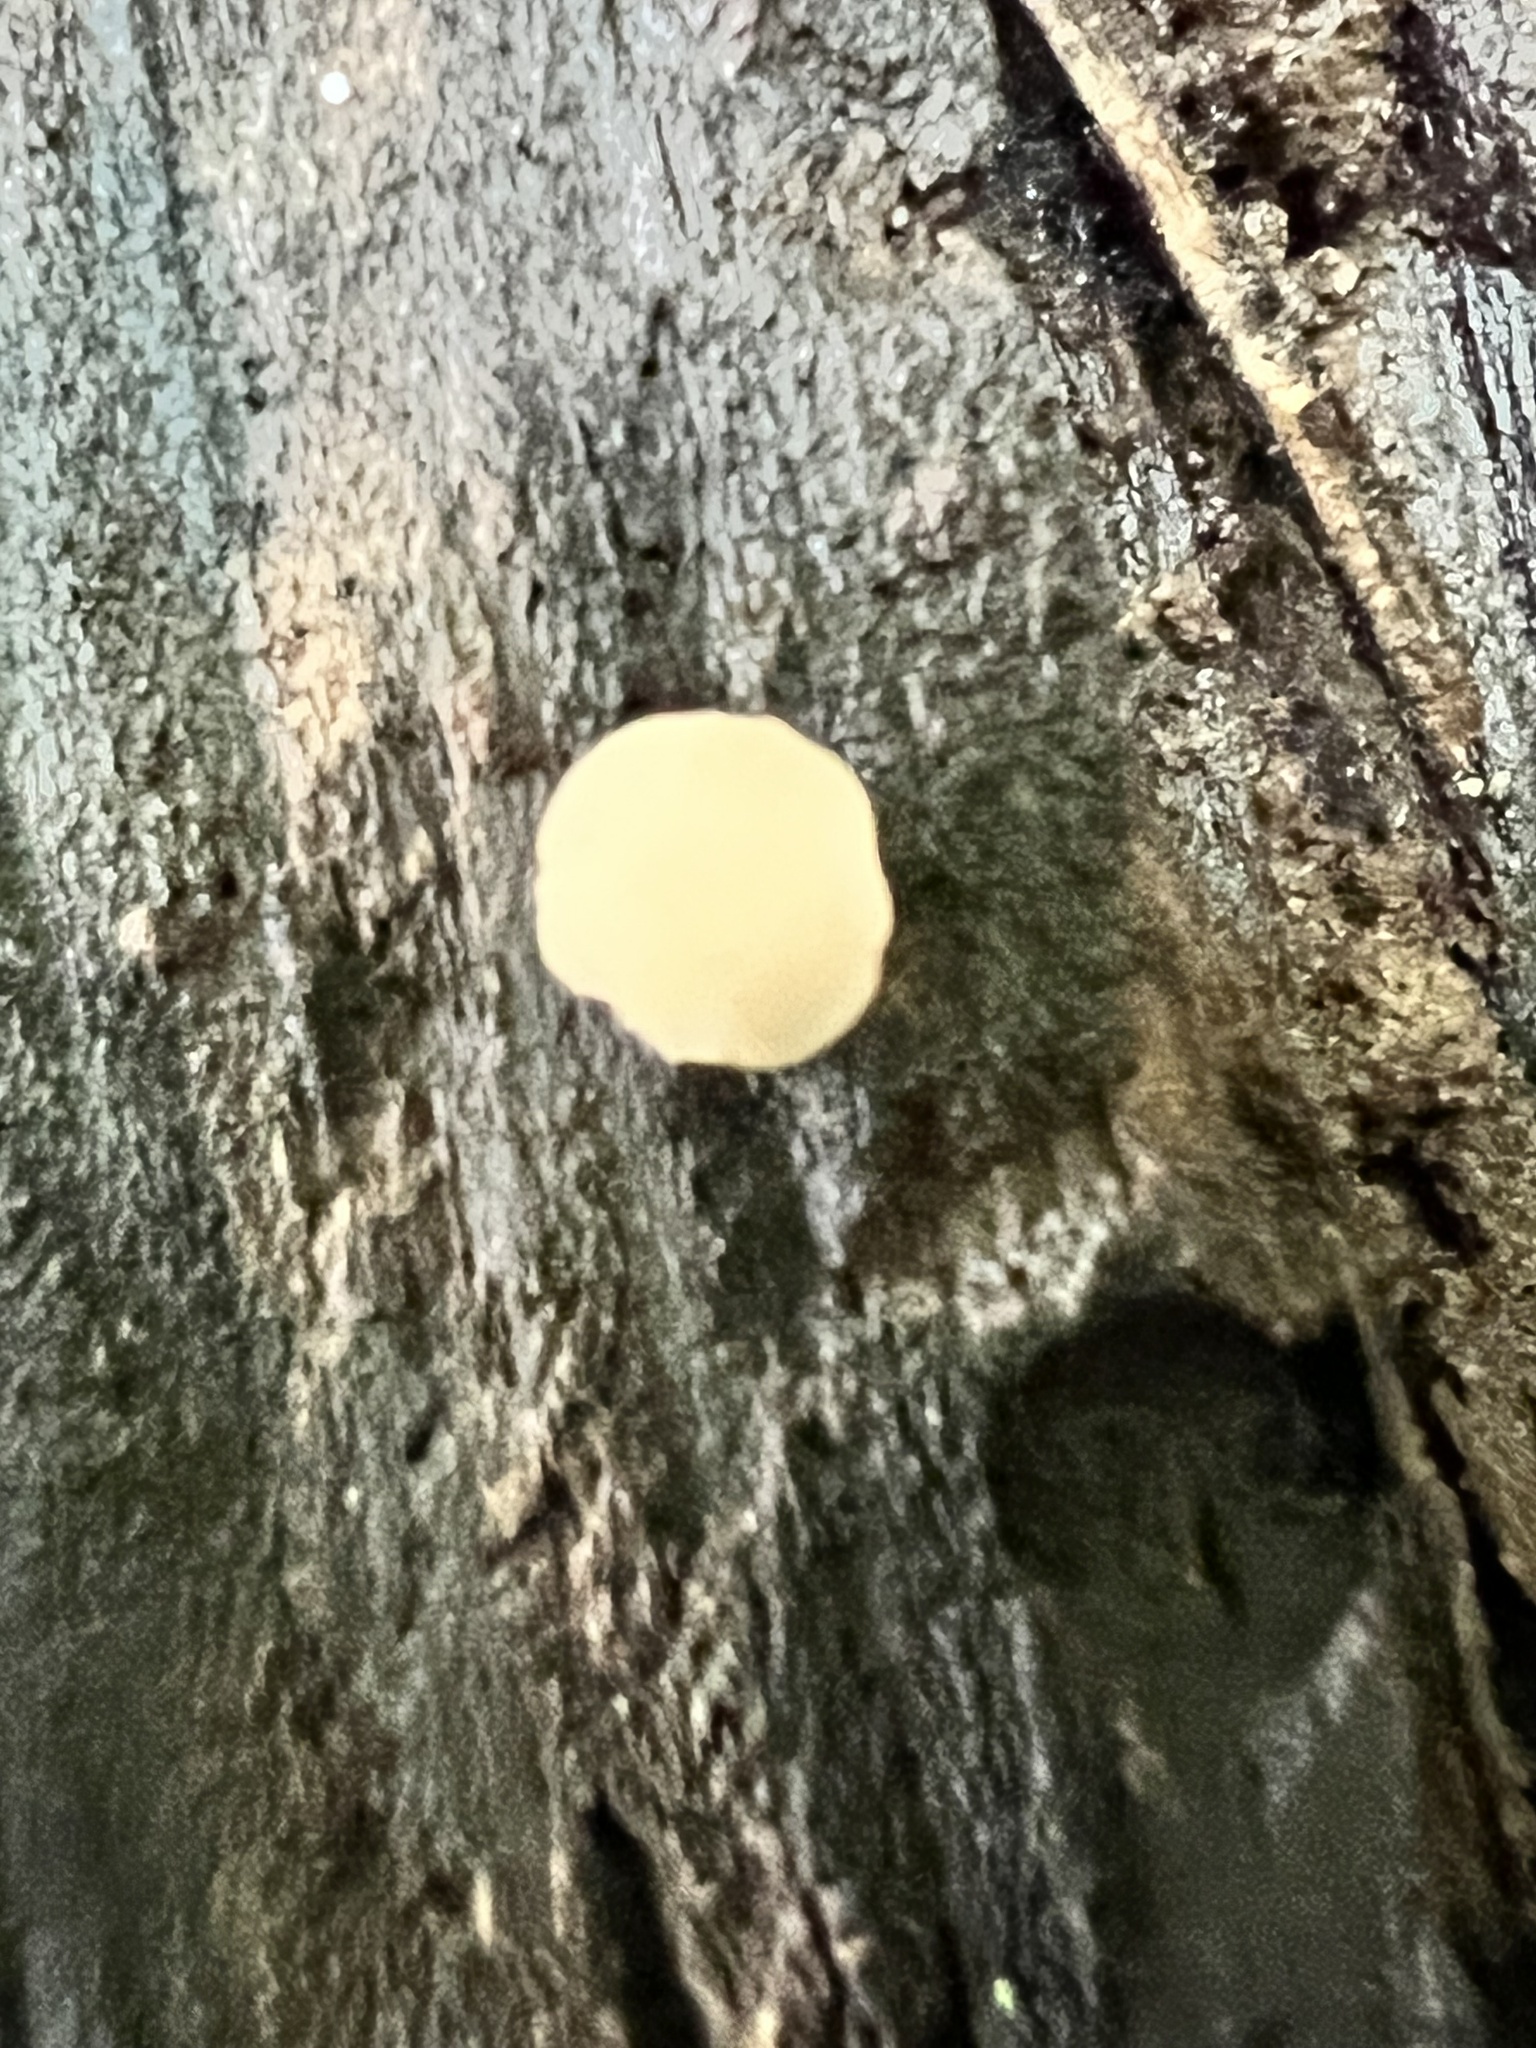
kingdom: Fungi
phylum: Ascomycota
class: Leotiomycetes
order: Helotiales
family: Helotiaceae
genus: Tatraea
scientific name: Tatraea macrospora
